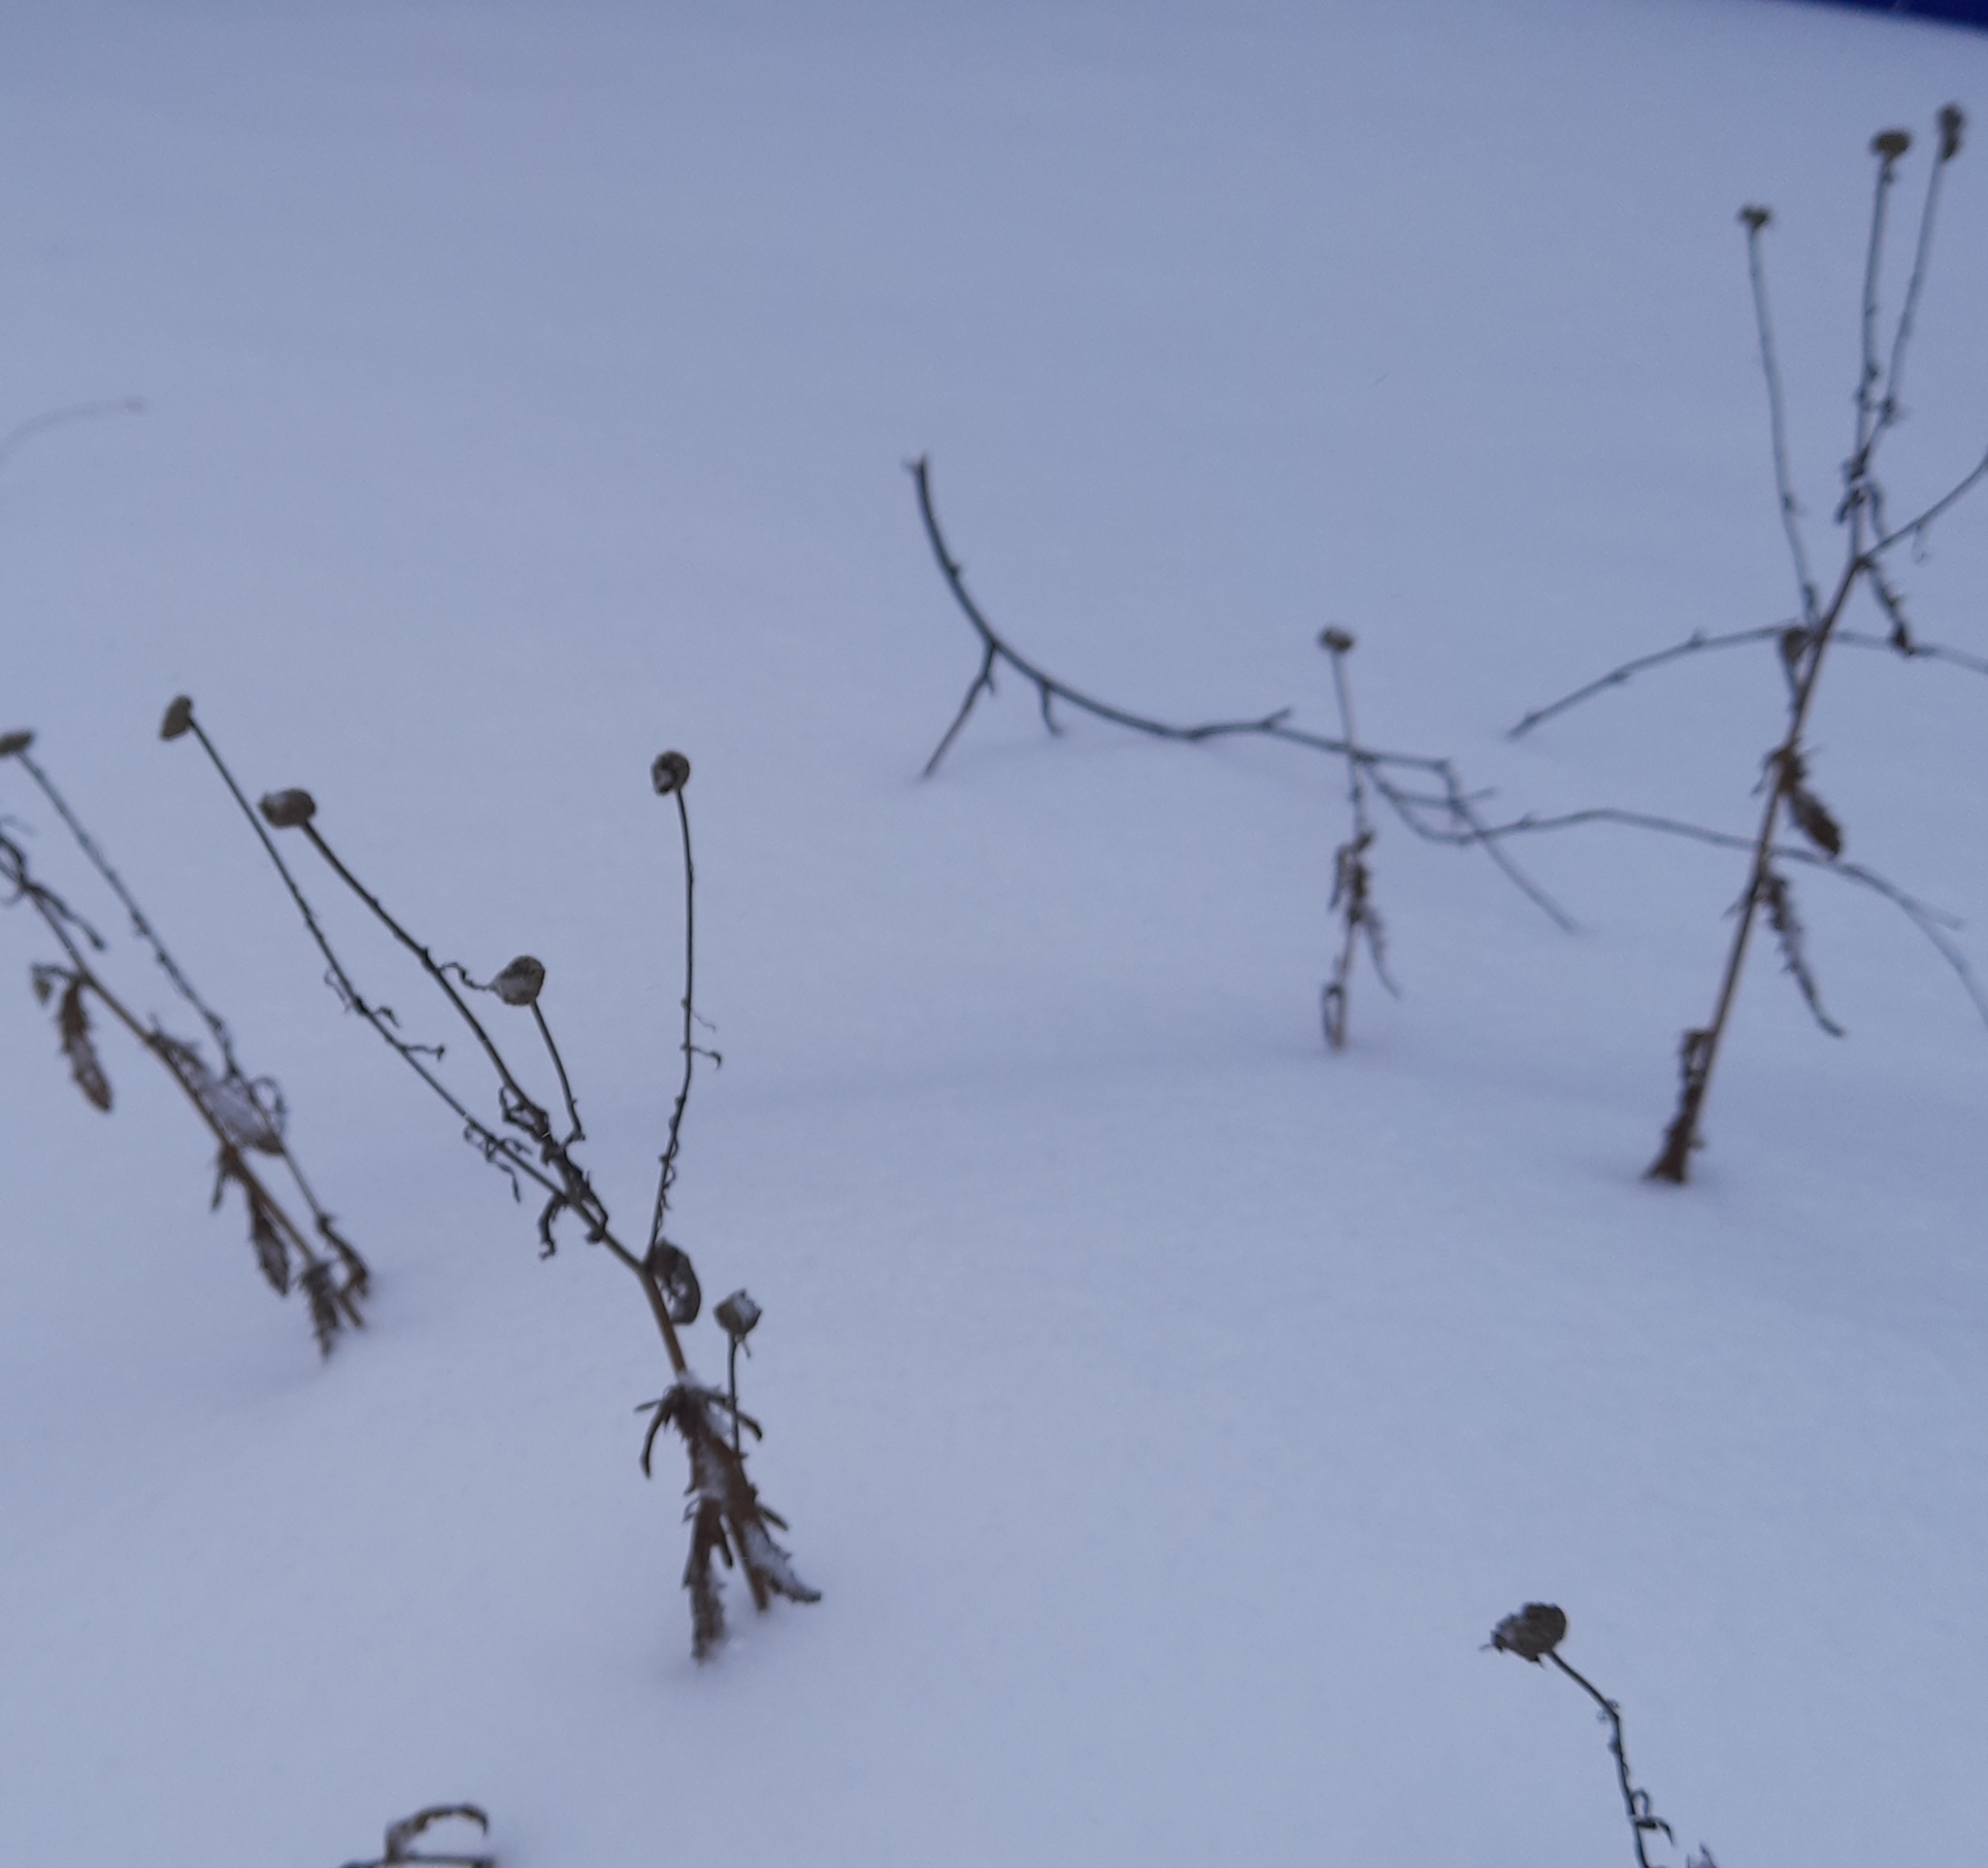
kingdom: Plantae
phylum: Tracheophyta
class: Magnoliopsida
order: Asterales
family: Asteraceae
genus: Leucanthemum
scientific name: Leucanthemum ircutianum
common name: Daisy
